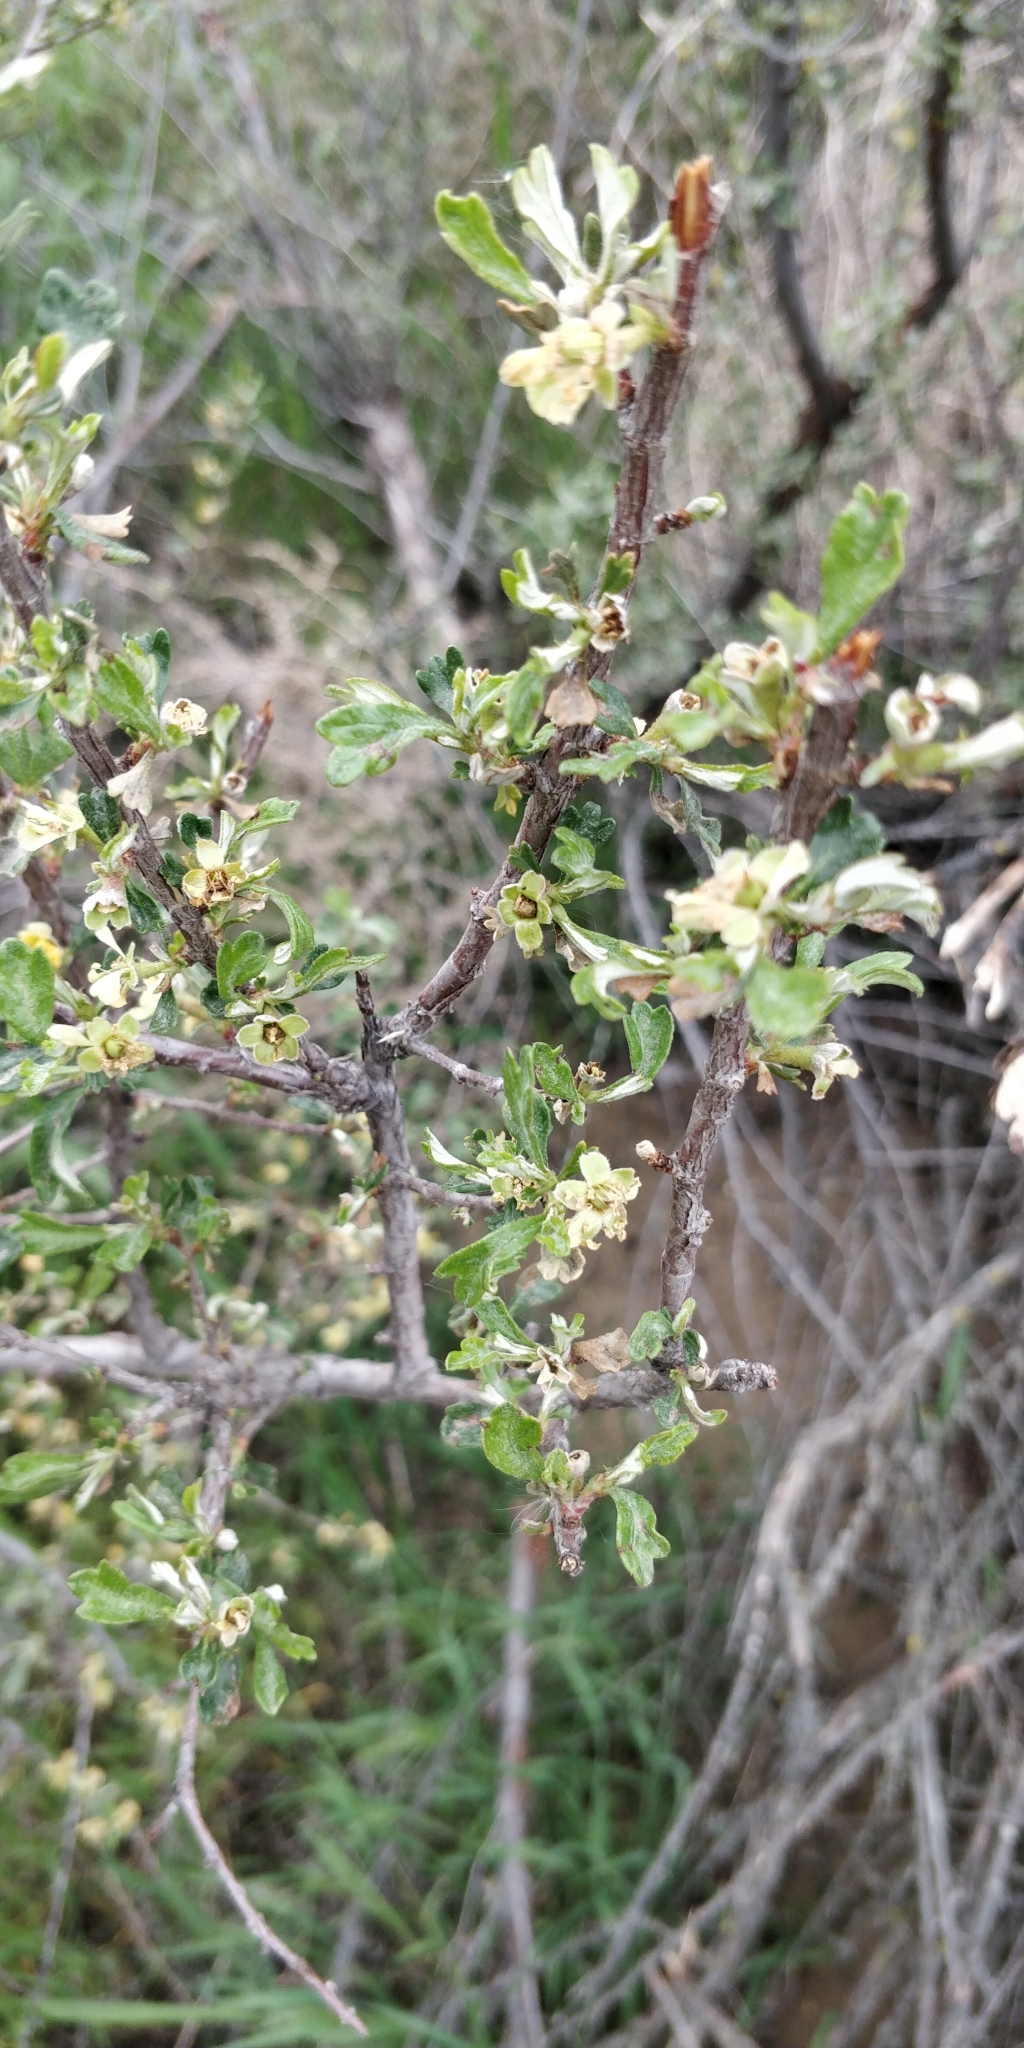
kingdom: Plantae
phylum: Tracheophyta
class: Magnoliopsida
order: Rosales
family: Rosaceae
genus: Purshia
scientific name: Purshia tridentata
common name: Antelope bitterbrush
